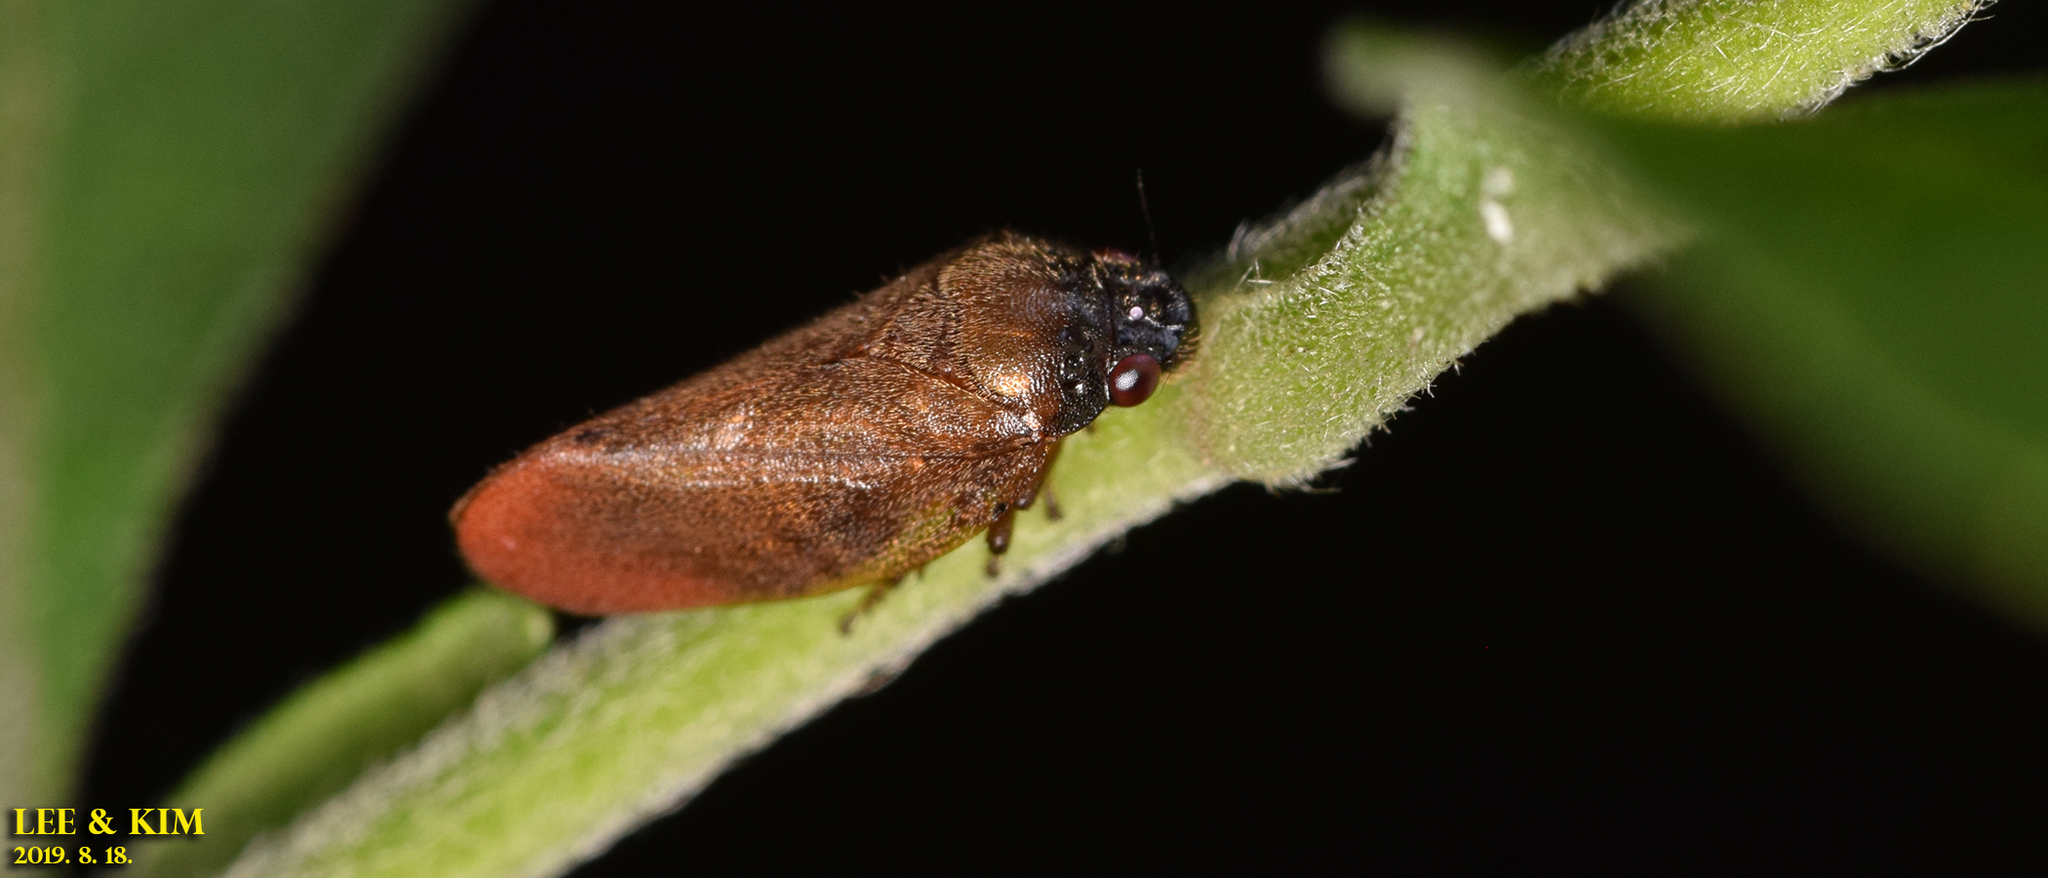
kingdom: Animalia
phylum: Arthropoda
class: Insecta
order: Hemiptera
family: Cercopidae
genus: Eoscarta
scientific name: Eoscarta assimilis
